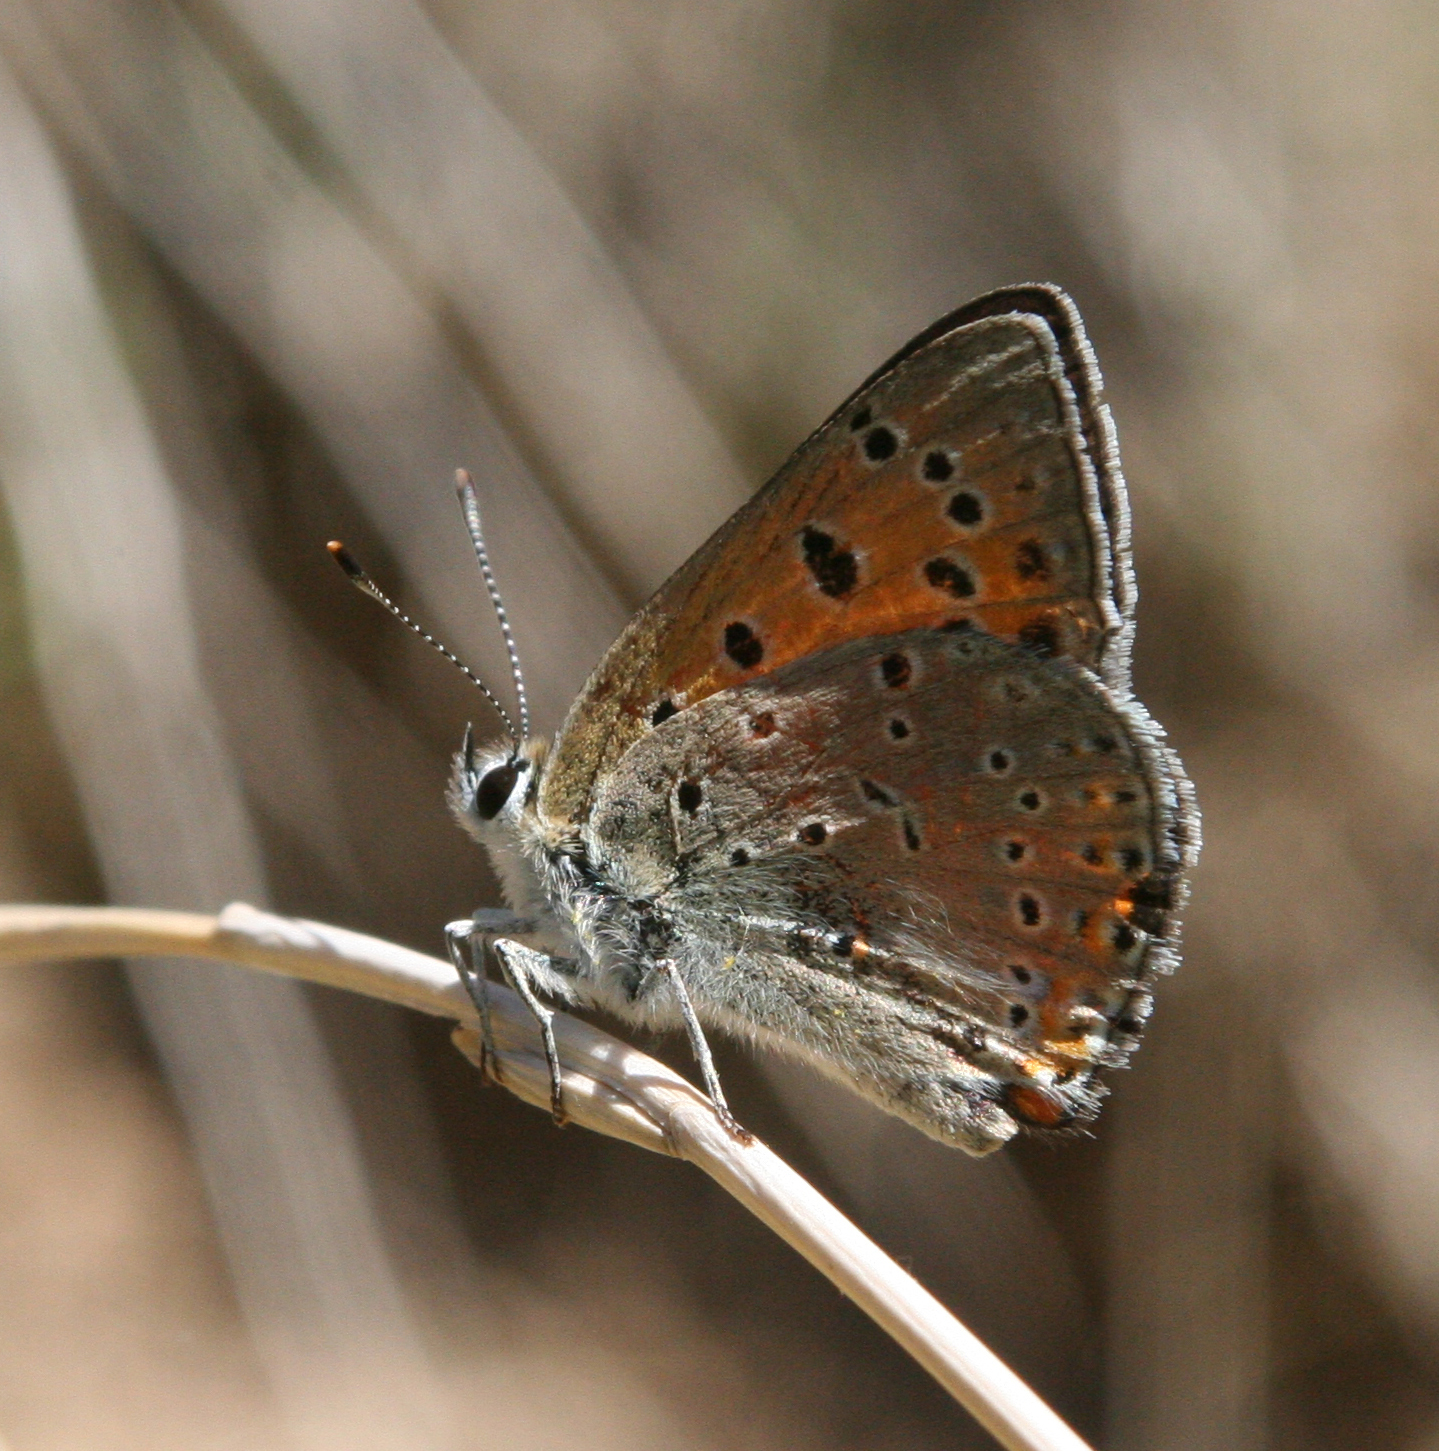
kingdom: Animalia
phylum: Arthropoda
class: Insecta
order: Lepidoptera
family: Lycaenidae
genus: Lycaena
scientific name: Lycaena asabinus
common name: Anatolian fiery copper
